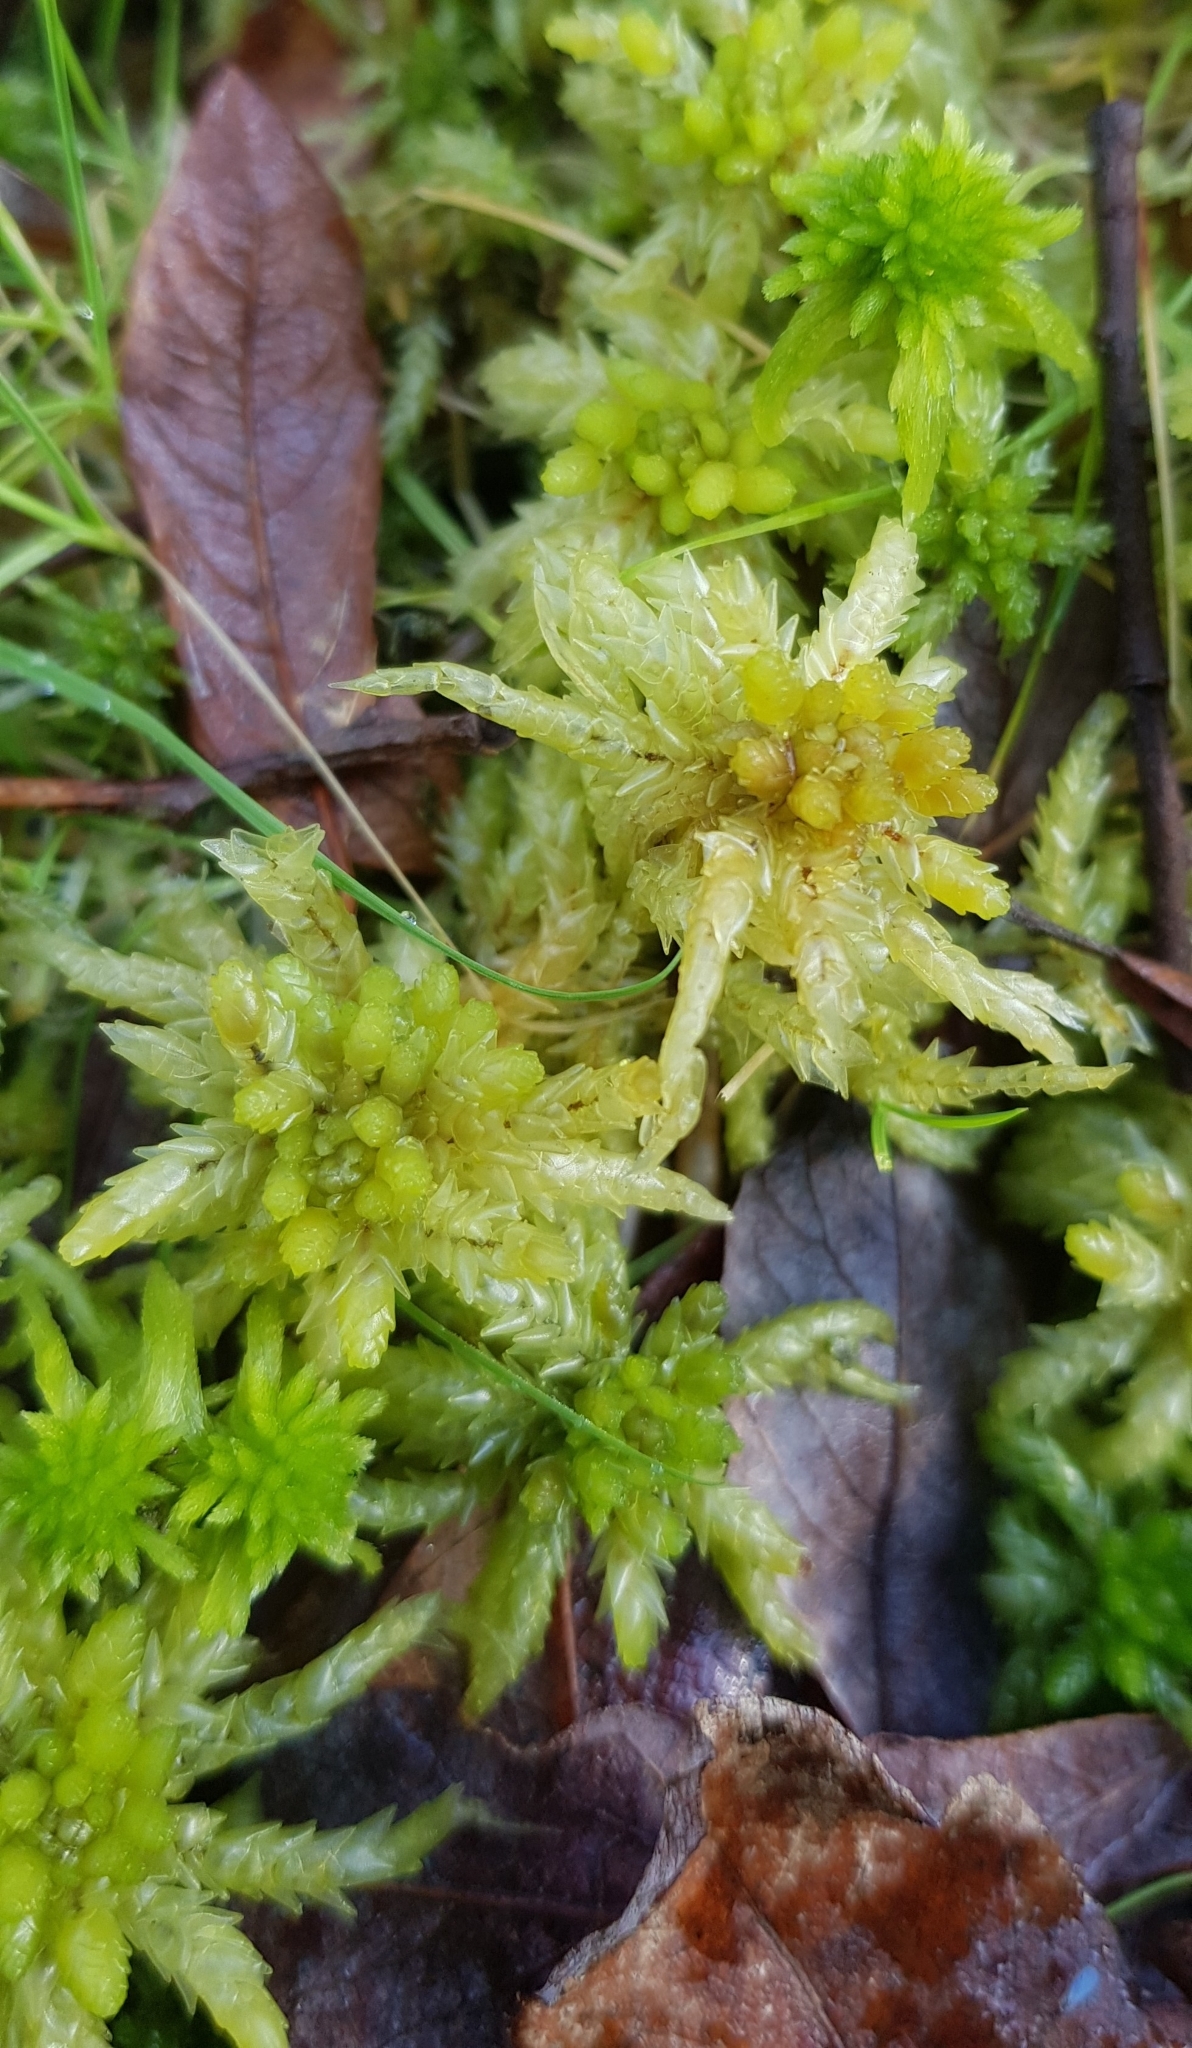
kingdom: Plantae
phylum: Bryophyta
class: Sphagnopsida
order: Sphagnales
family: Sphagnaceae
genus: Sphagnum
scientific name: Sphagnum palustre
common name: Blunt-leaved bog-moss
